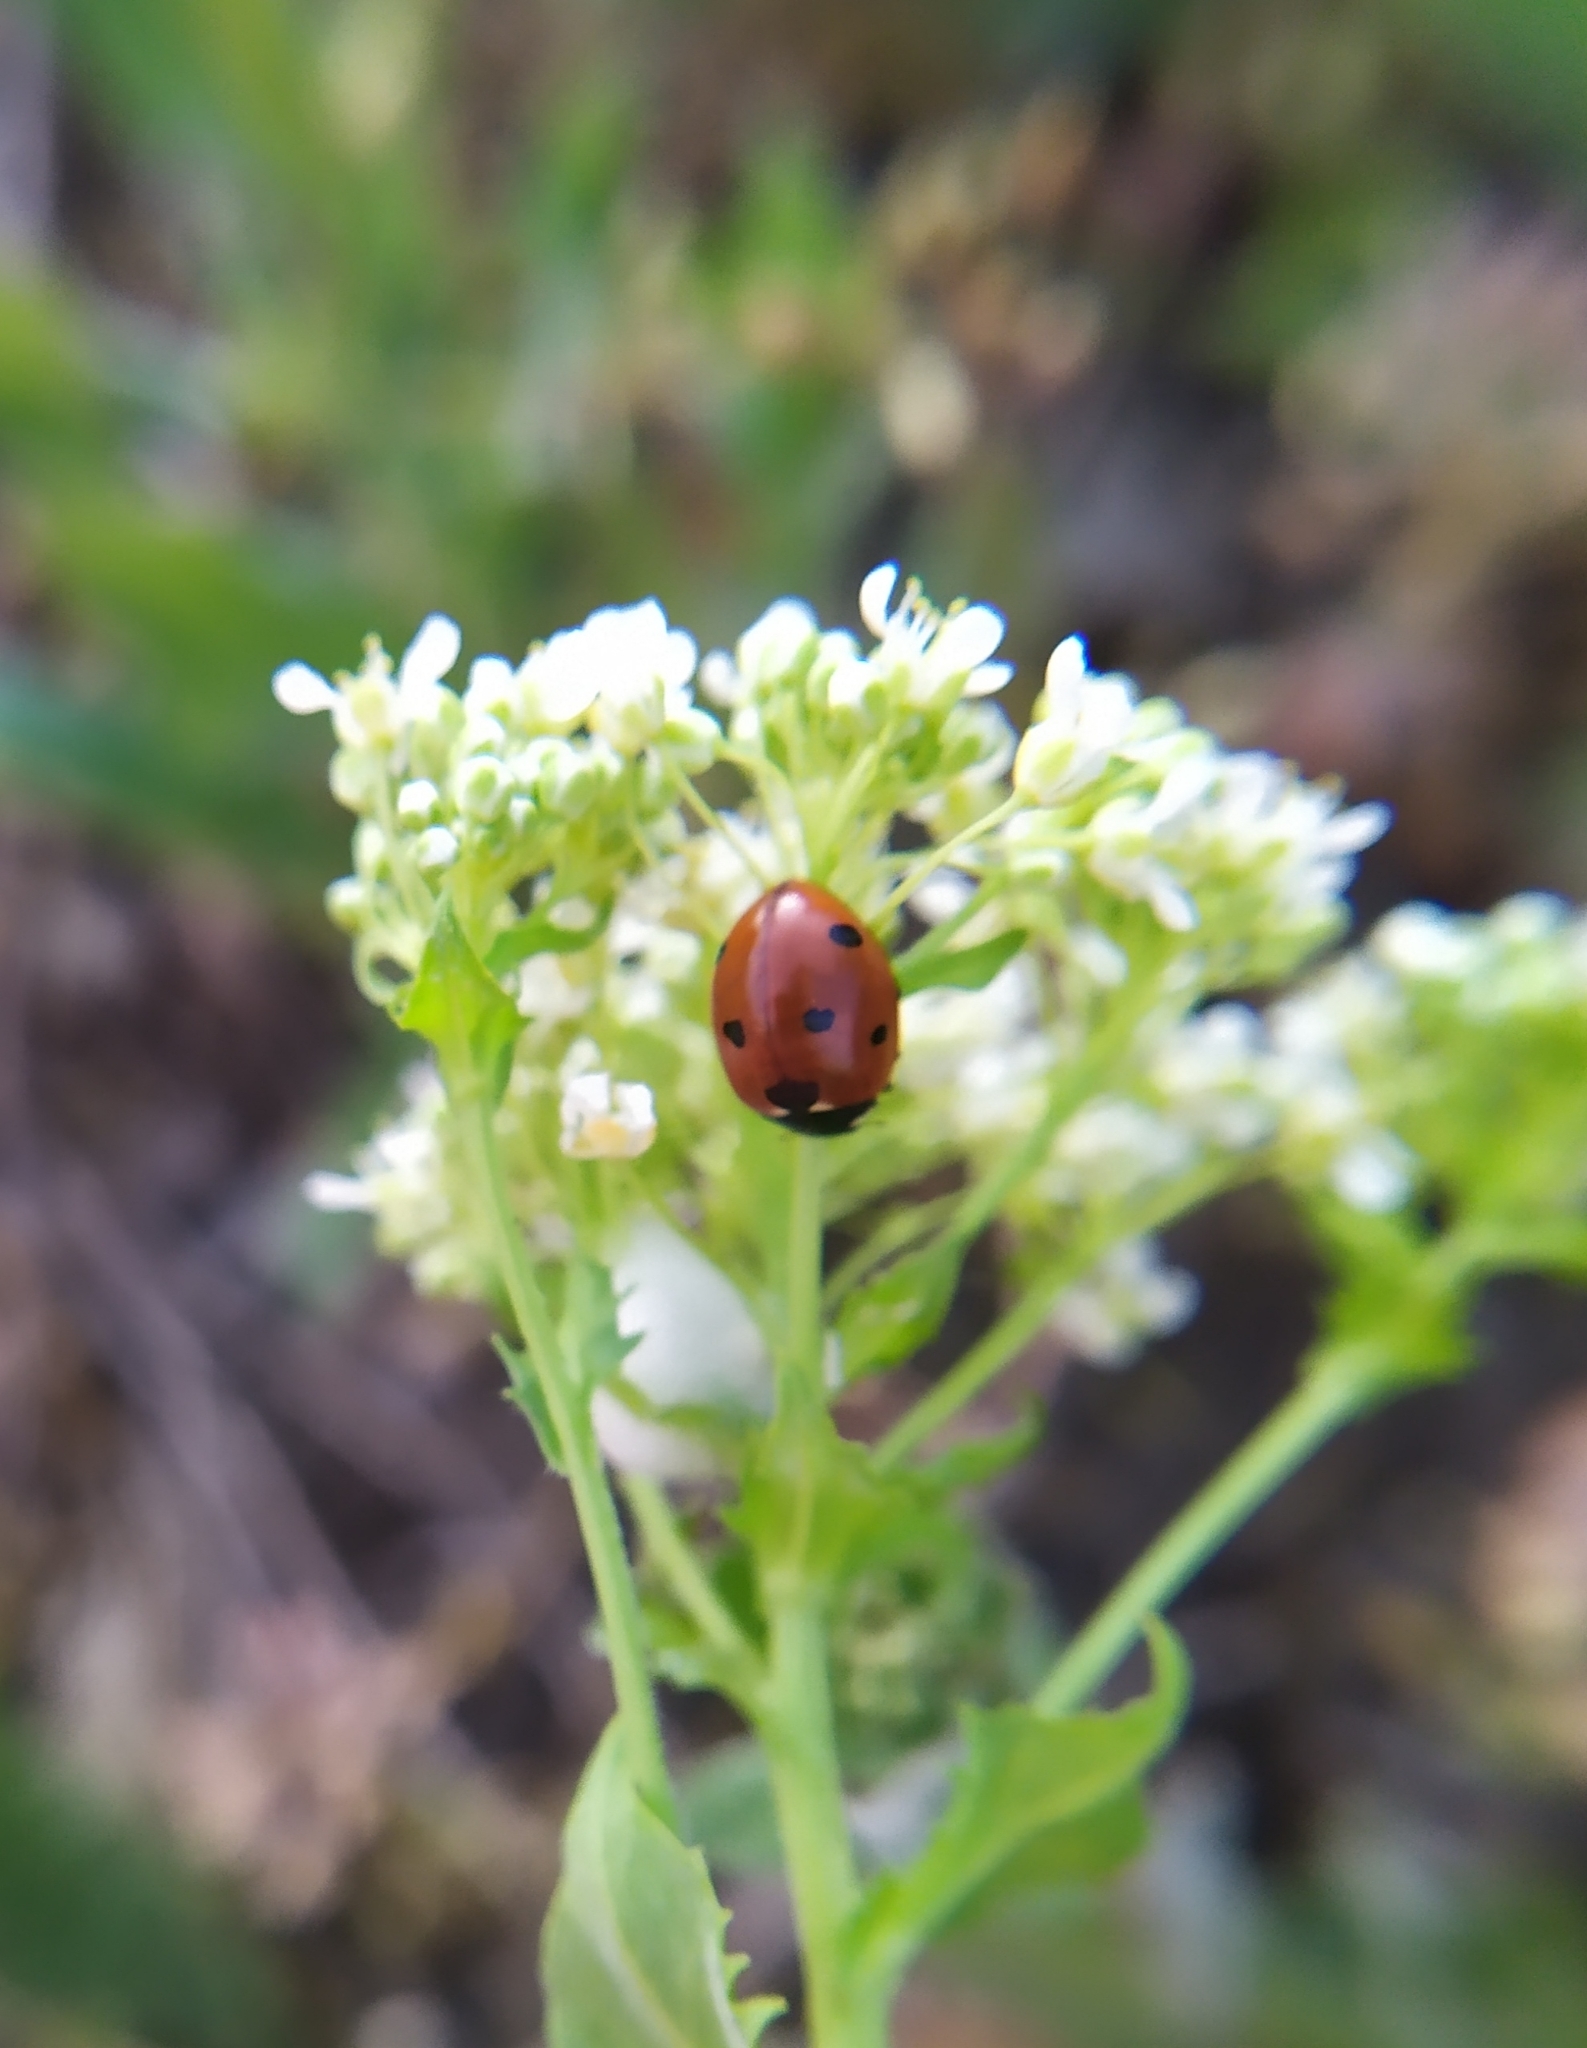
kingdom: Animalia
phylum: Arthropoda
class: Insecta
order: Coleoptera
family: Coccinellidae
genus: Coccinella
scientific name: Coccinella septempunctata
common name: Sevenspotted lady beetle
